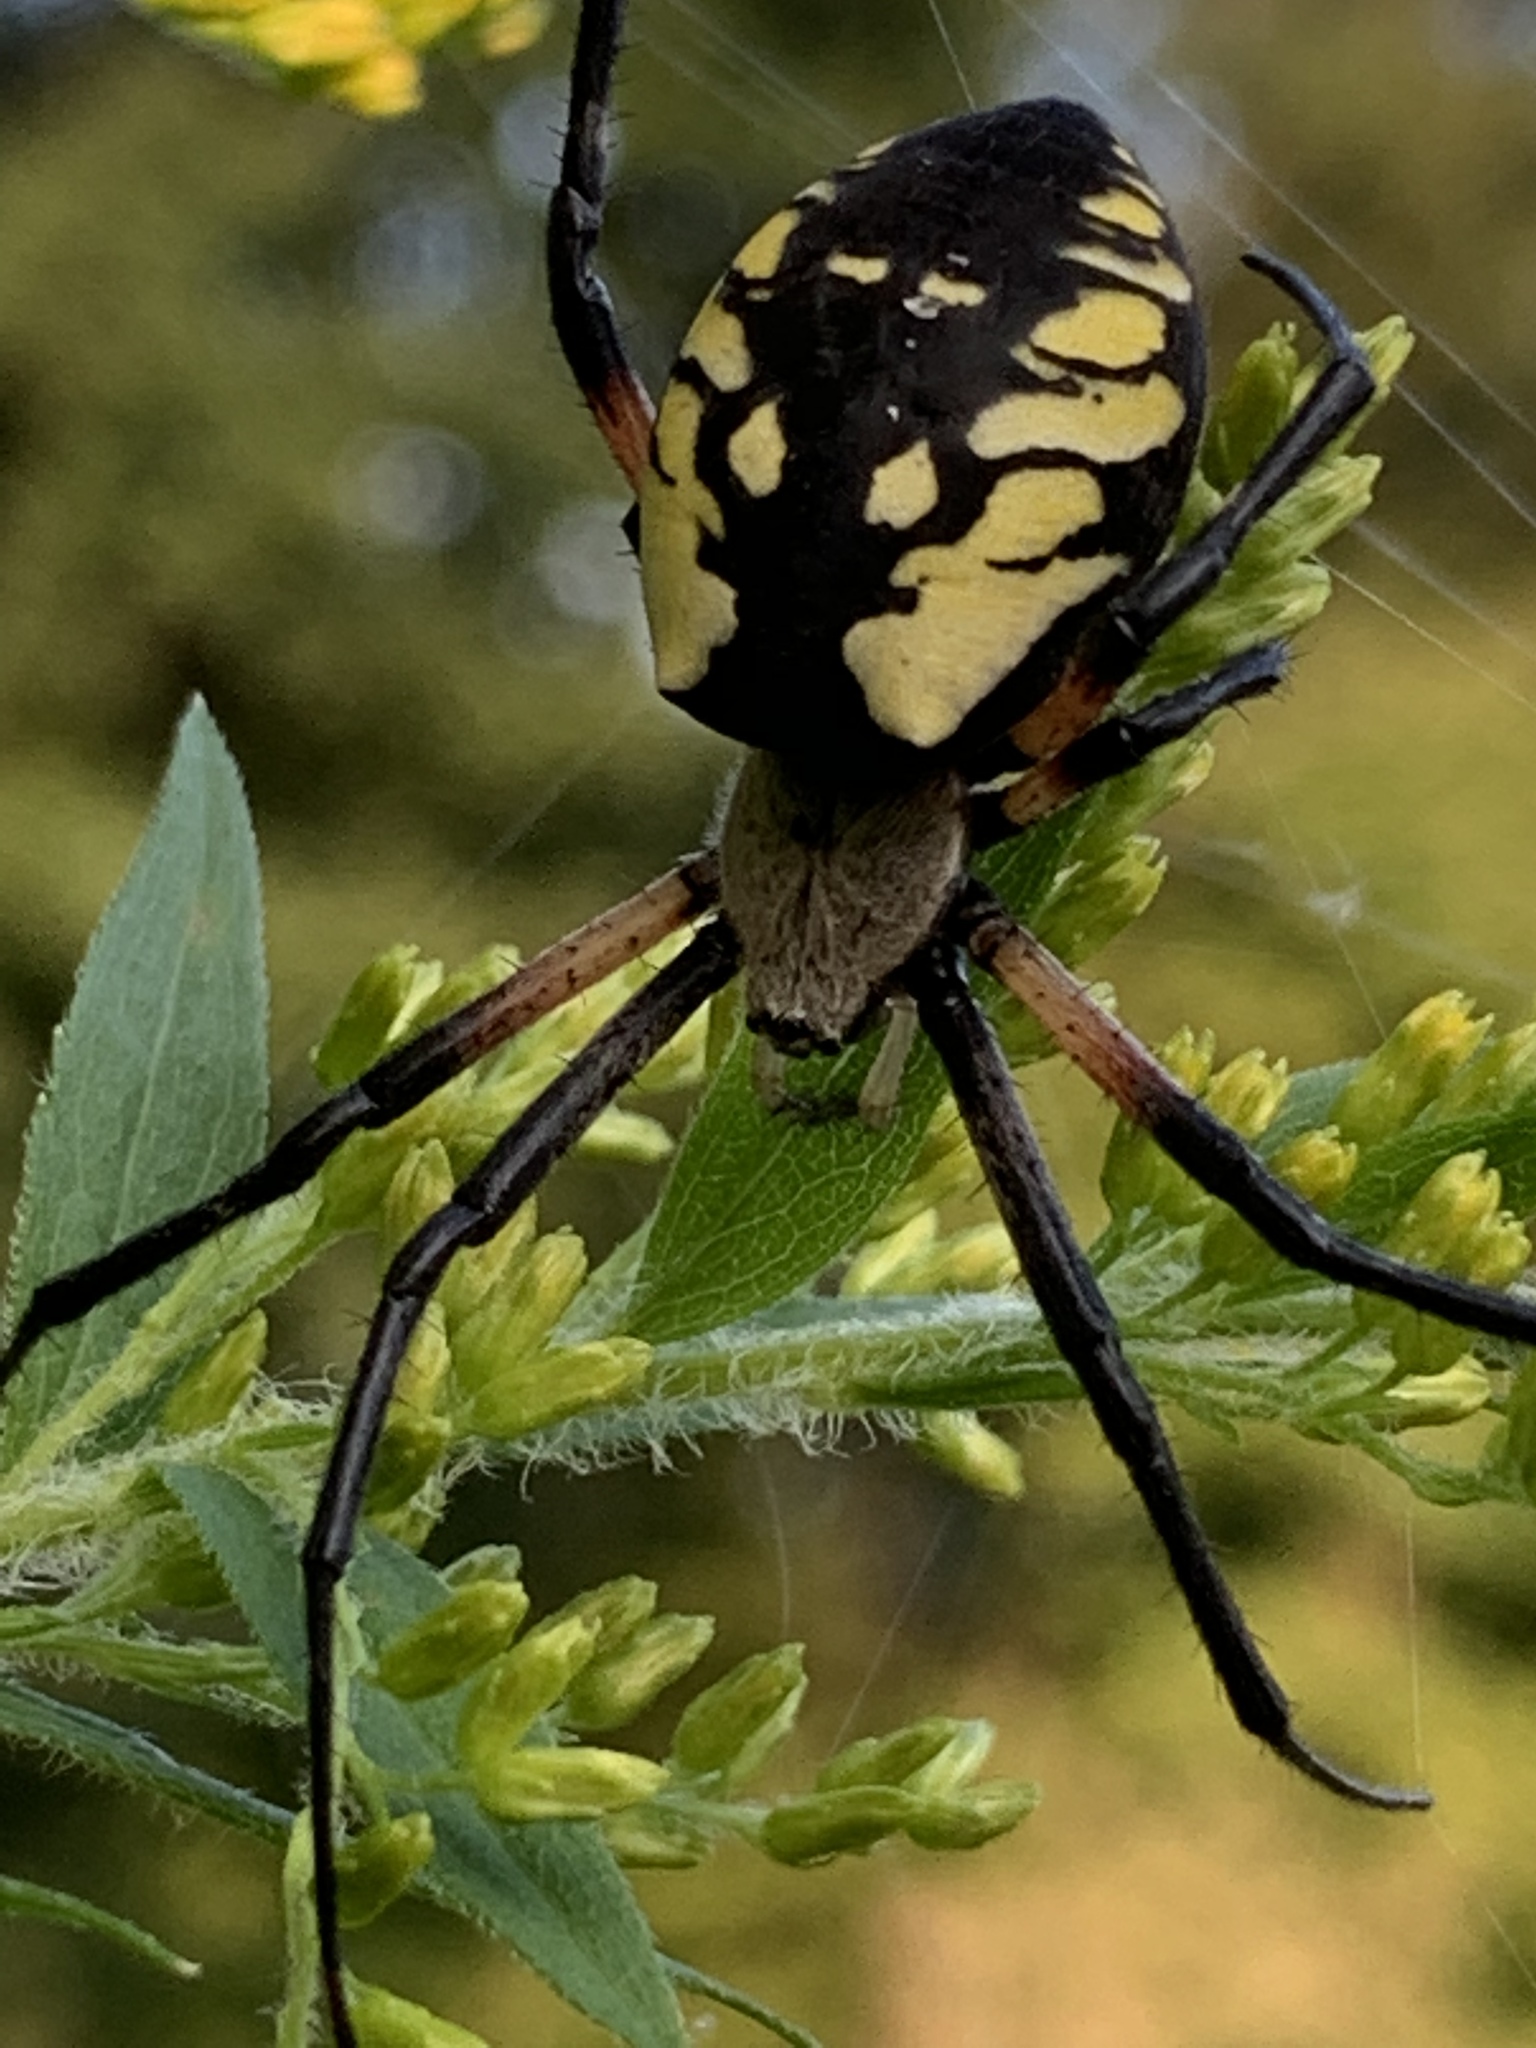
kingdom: Animalia
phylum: Arthropoda
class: Arachnida
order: Araneae
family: Araneidae
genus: Argiope
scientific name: Argiope aurantia
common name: Orb weavers
